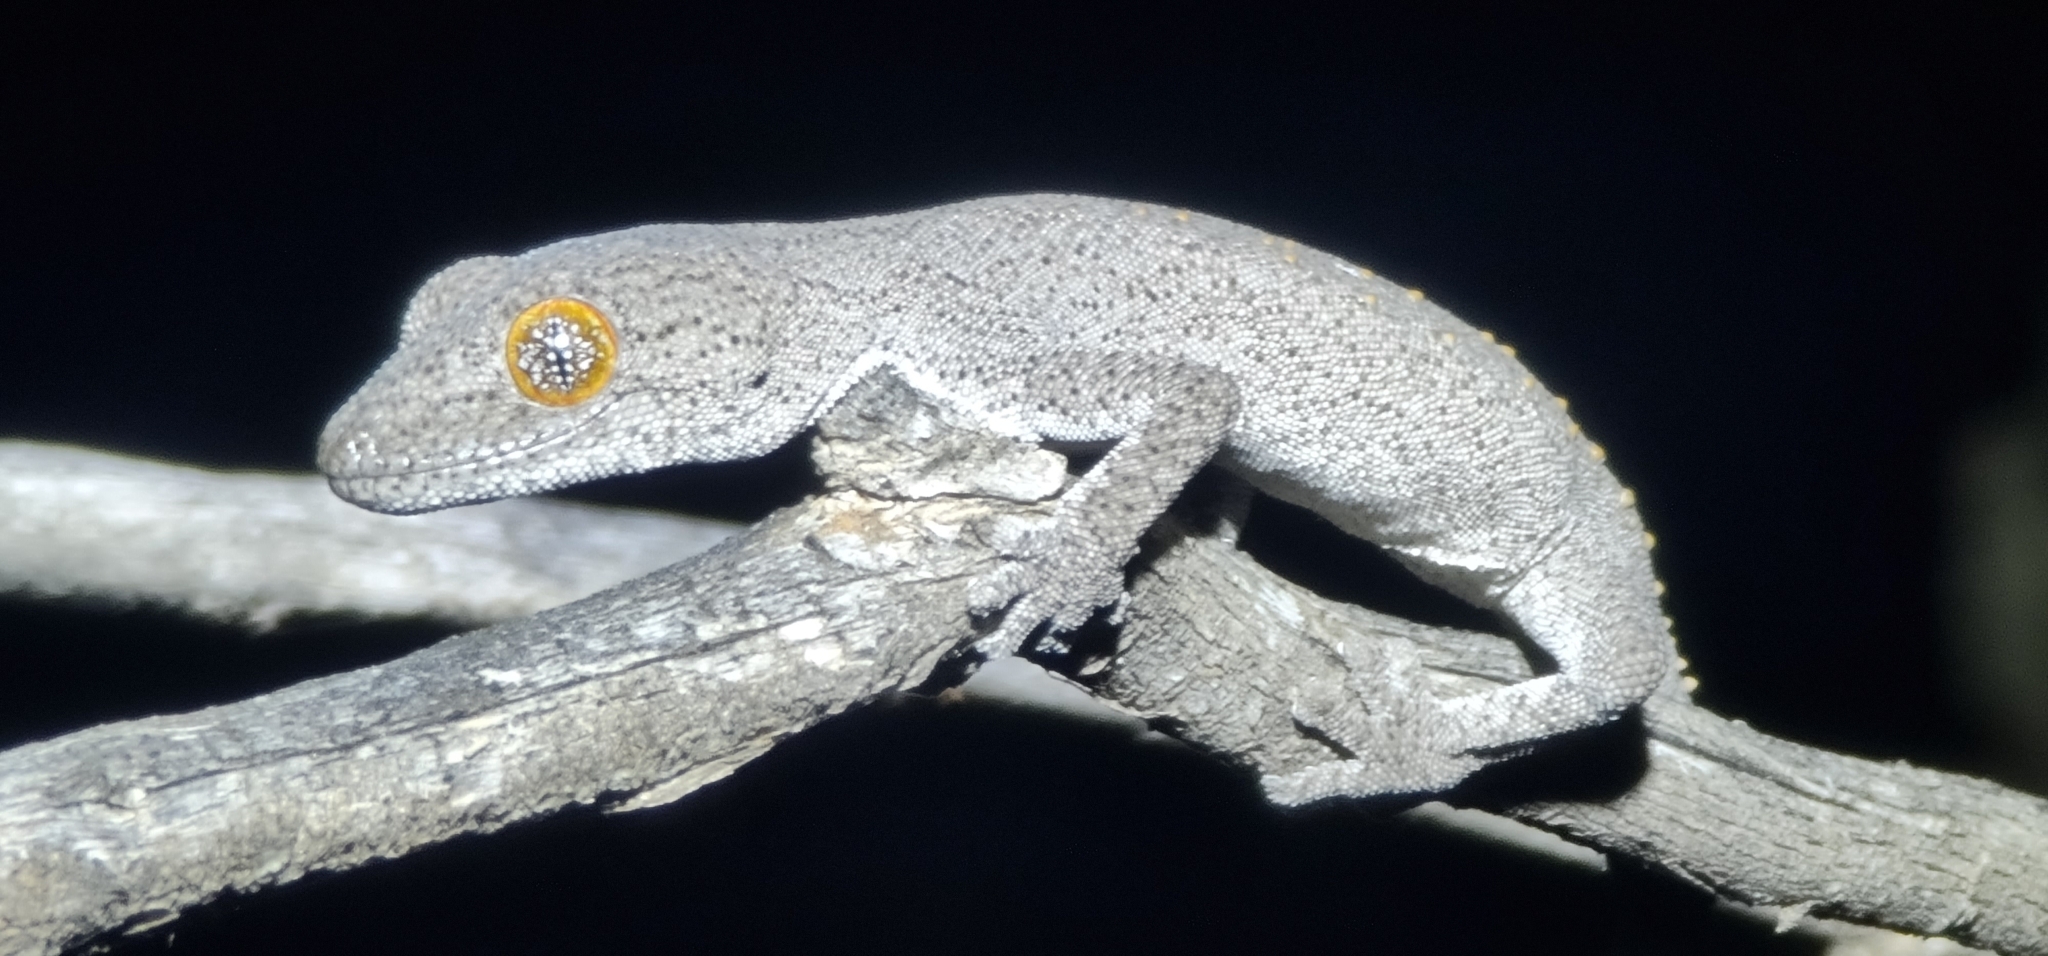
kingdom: Animalia
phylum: Chordata
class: Squamata
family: Diplodactylidae
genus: Strophurus
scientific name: Strophurus williamsi
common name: Eastern spiny-tailed gecko
